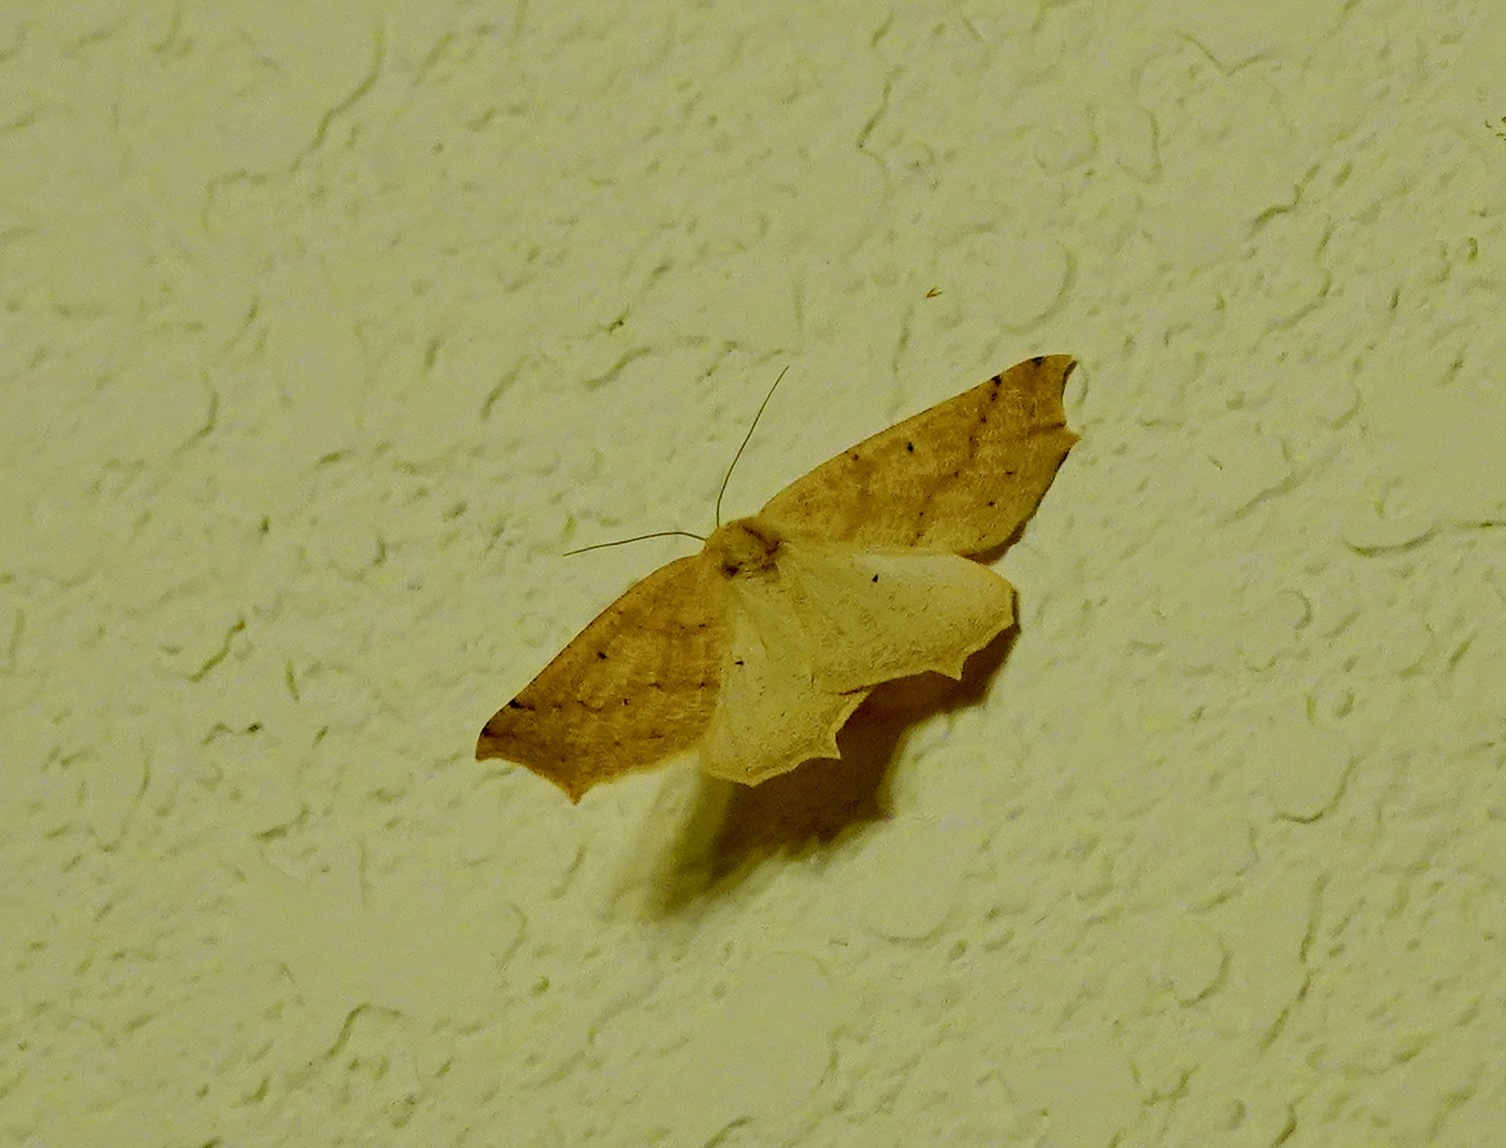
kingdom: Animalia
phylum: Arthropoda
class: Insecta
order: Lepidoptera
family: Geometridae
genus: Prochoerodes
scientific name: Prochoerodes truxaliata
